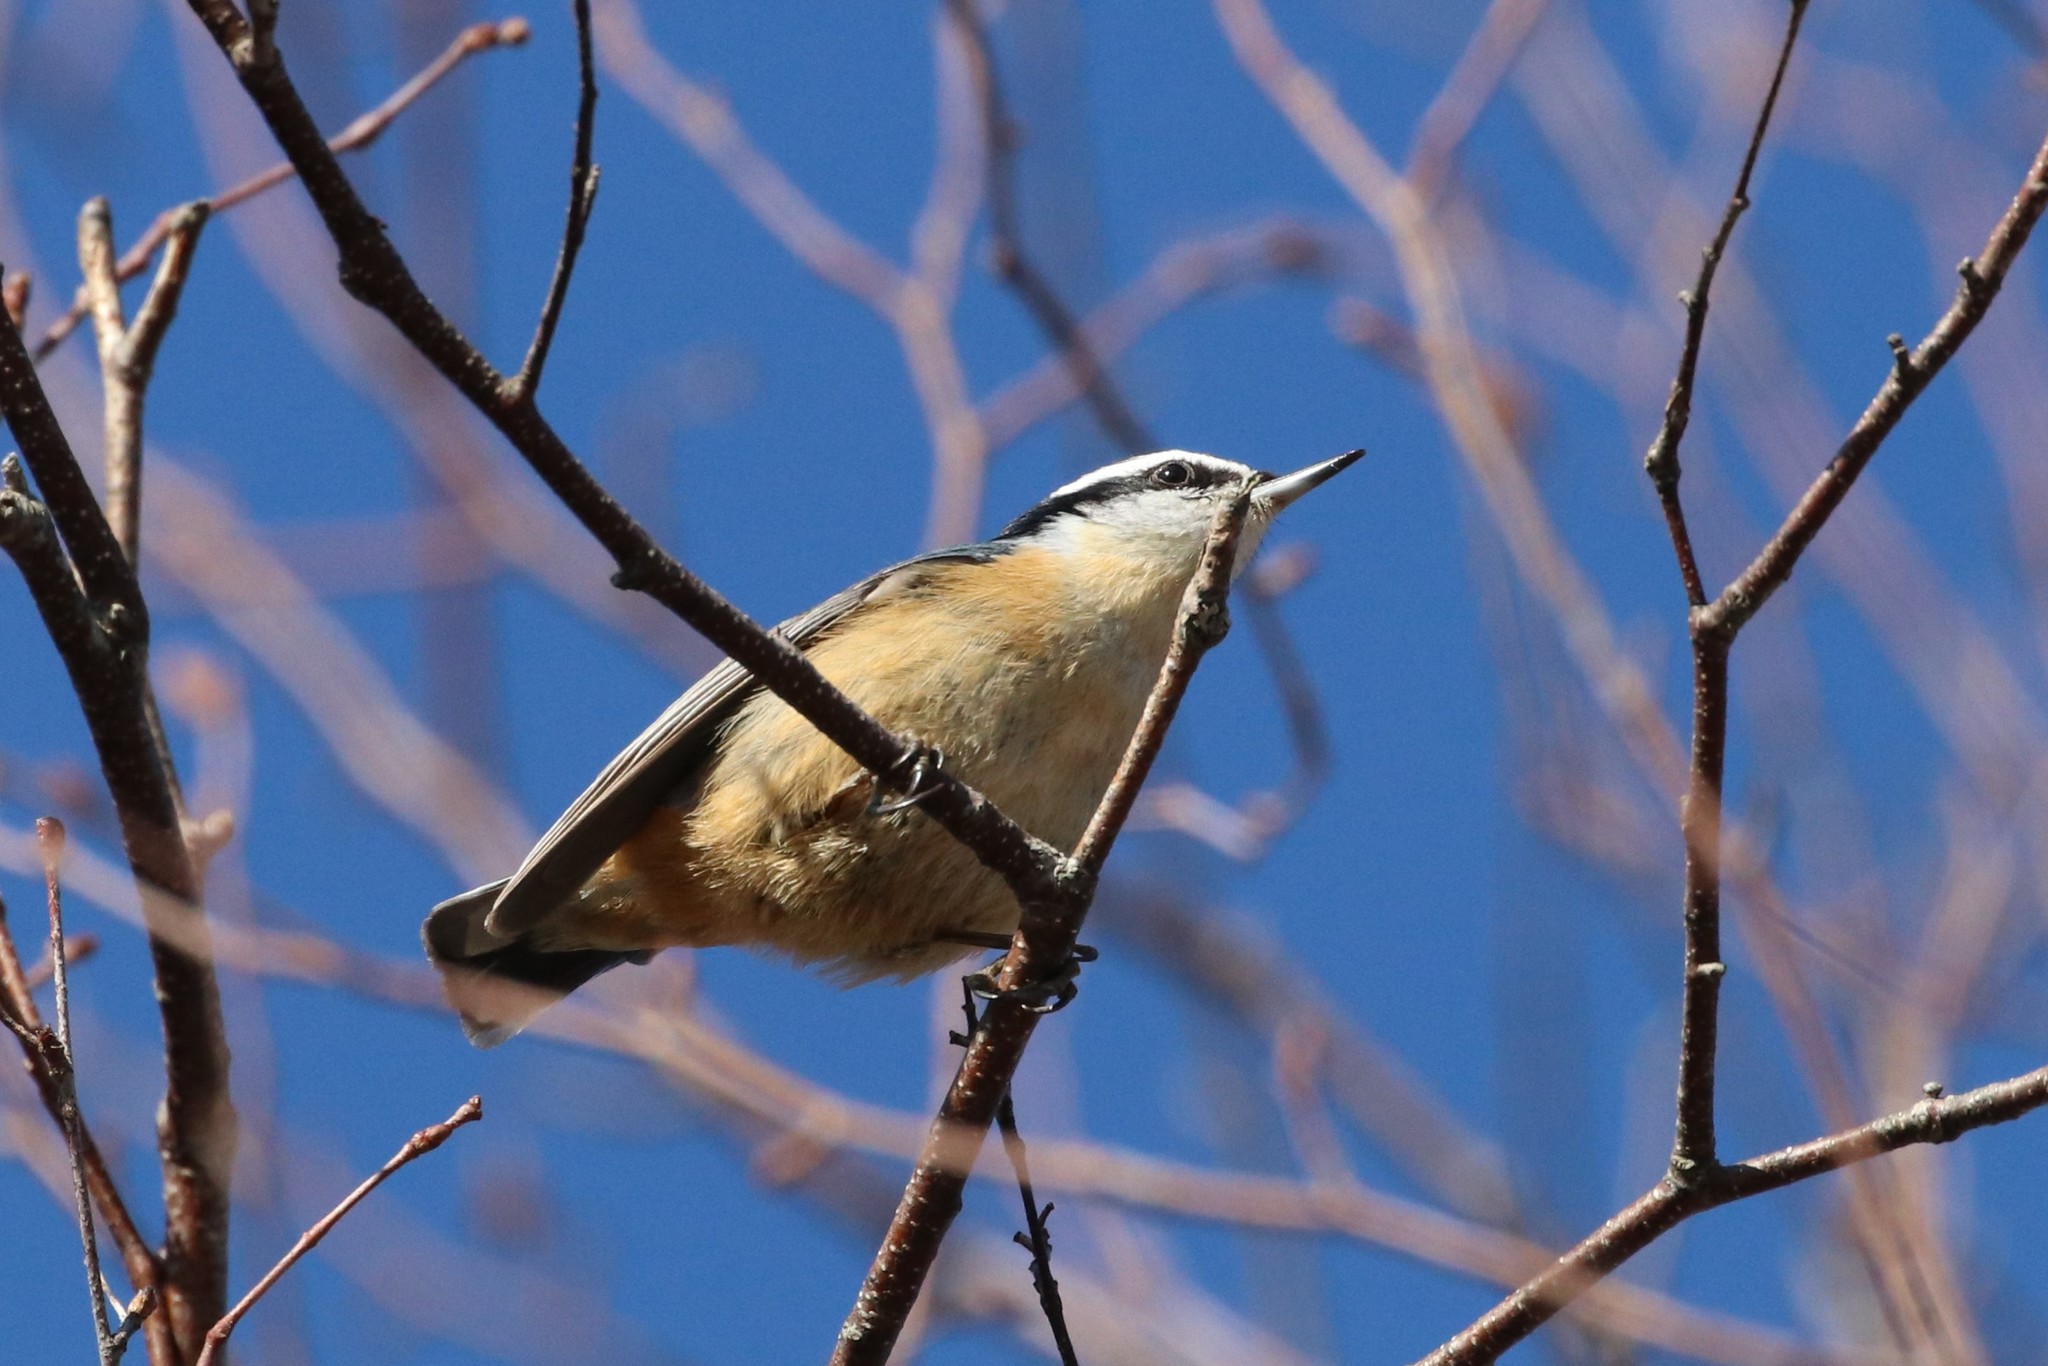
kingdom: Animalia
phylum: Chordata
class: Aves
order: Passeriformes
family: Sittidae
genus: Sitta
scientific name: Sitta canadensis
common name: Red-breasted nuthatch
